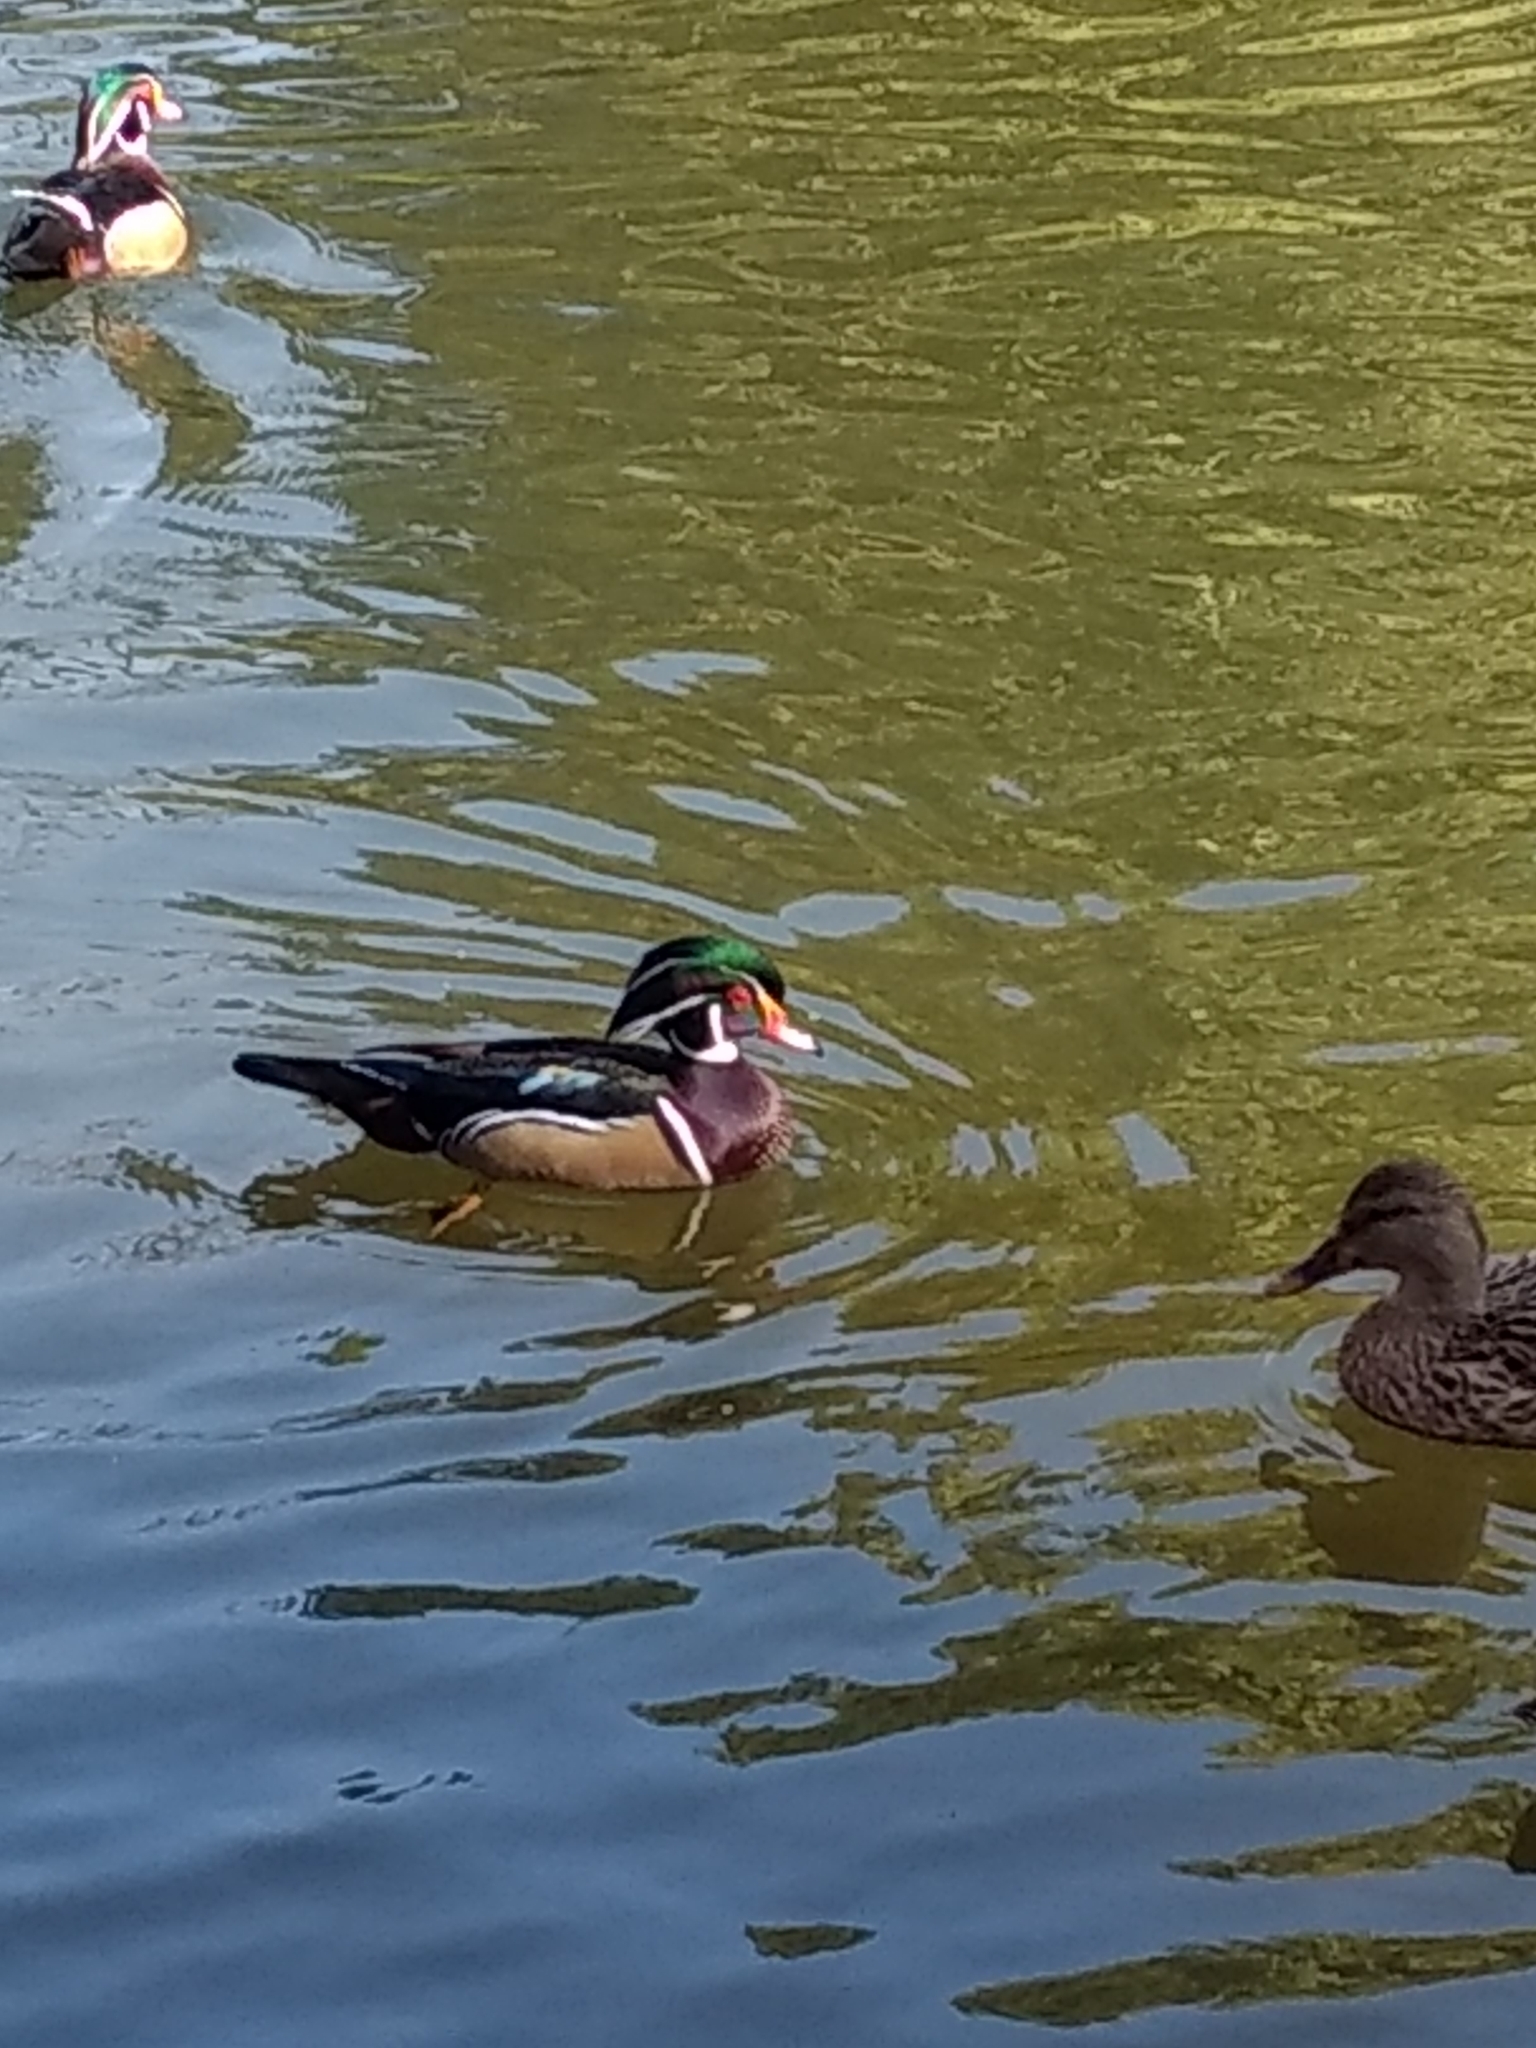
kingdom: Animalia
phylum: Chordata
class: Aves
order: Anseriformes
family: Anatidae
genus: Aix
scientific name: Aix sponsa
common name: Wood duck
